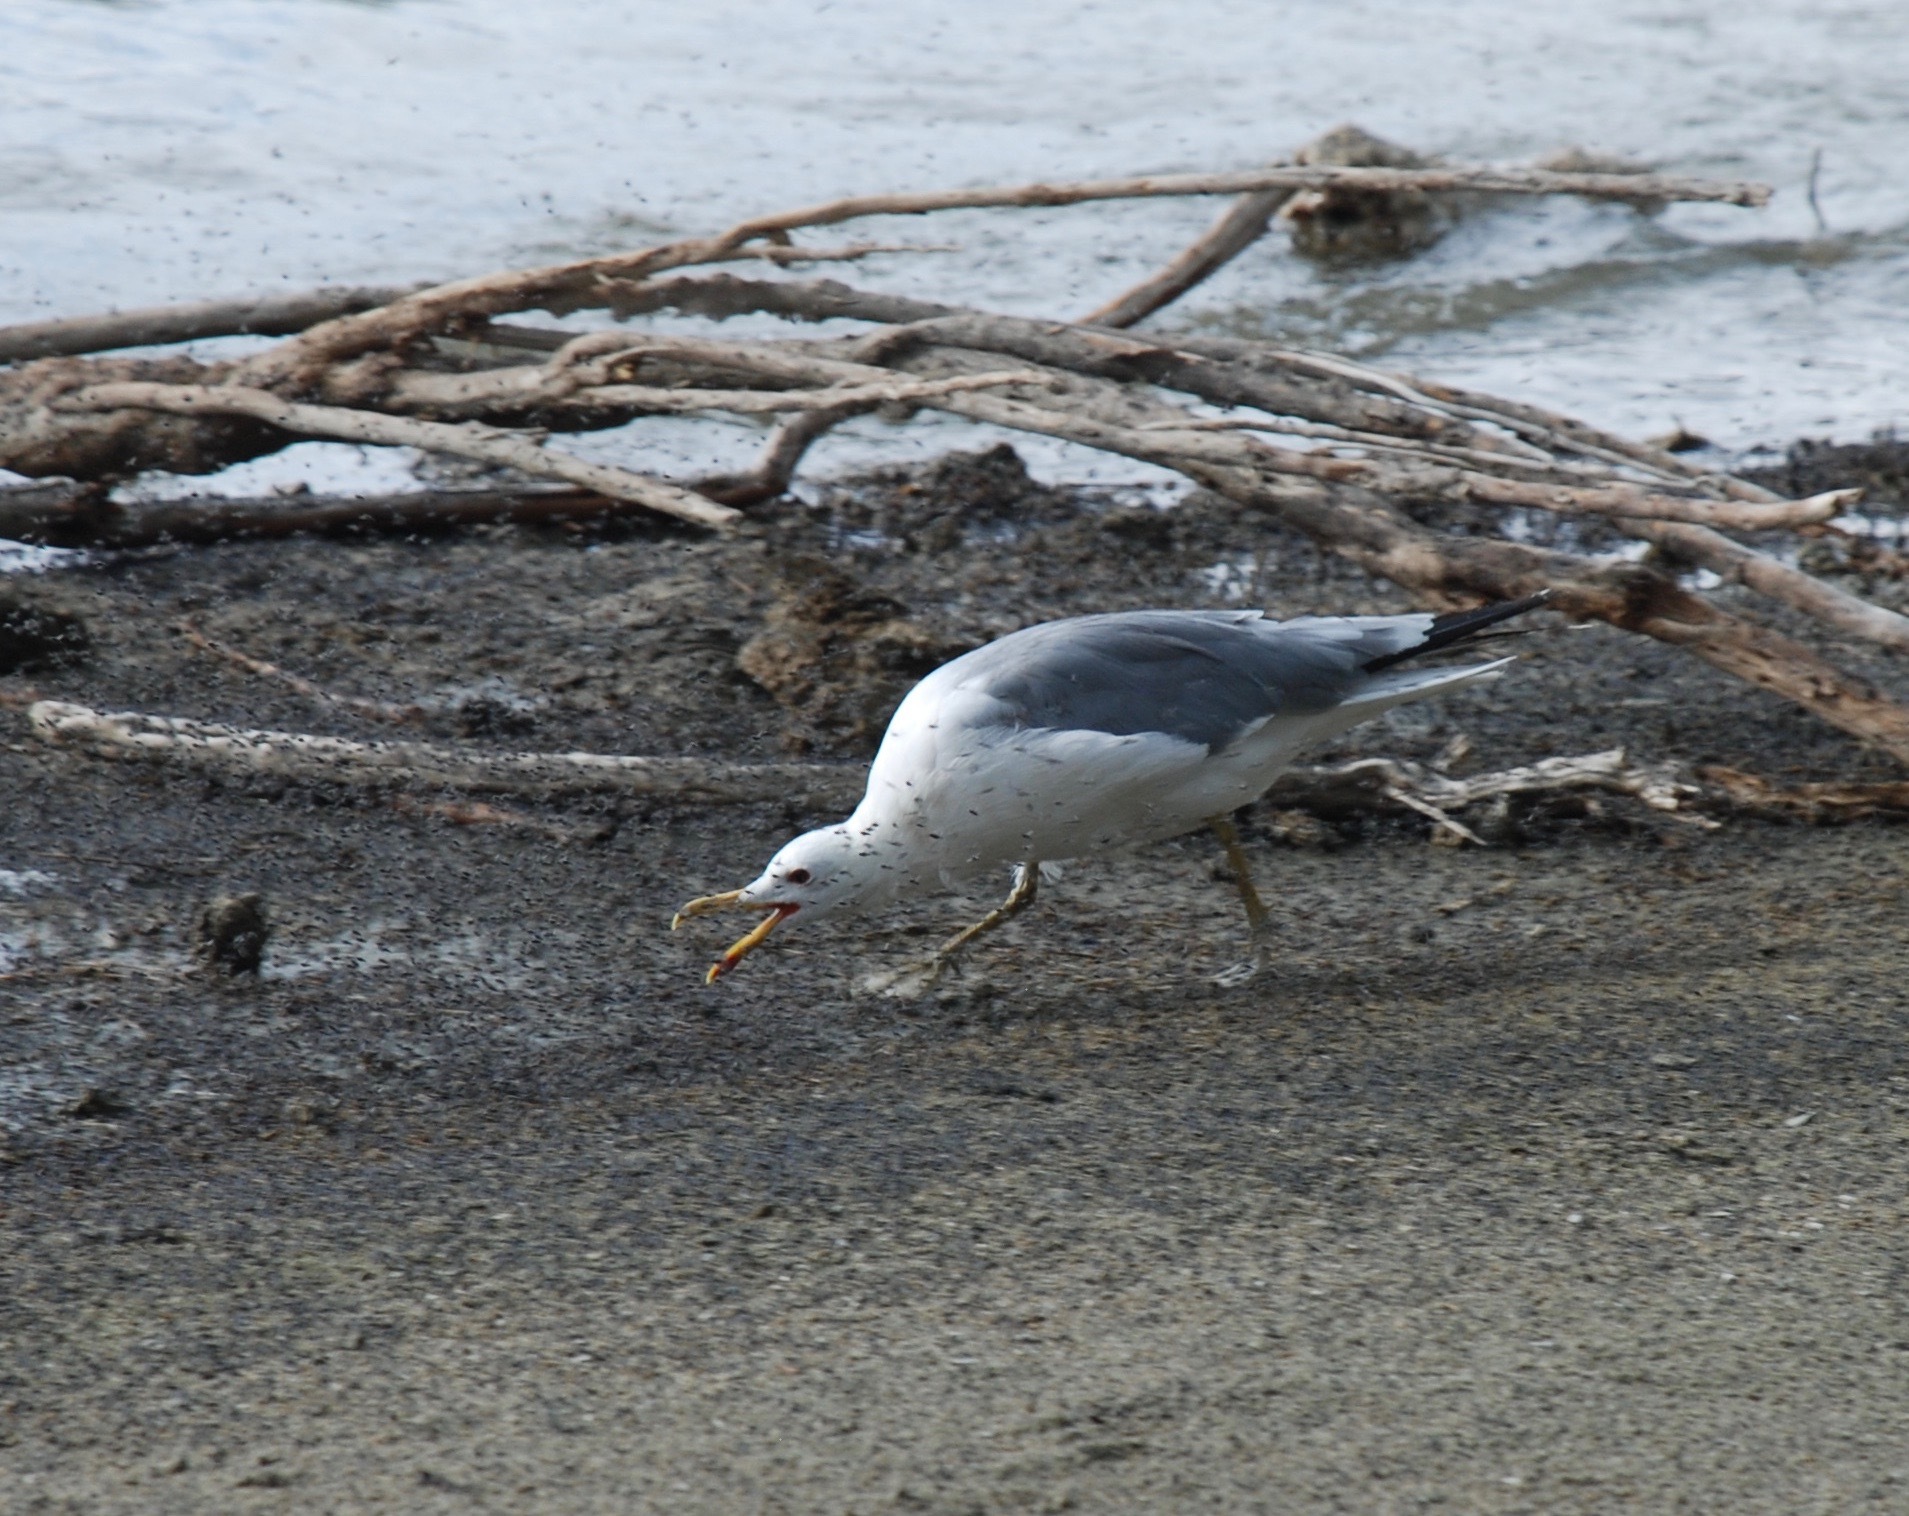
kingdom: Animalia
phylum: Chordata
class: Aves
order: Charadriiformes
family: Laridae
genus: Larus
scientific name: Larus californicus
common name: California gull
